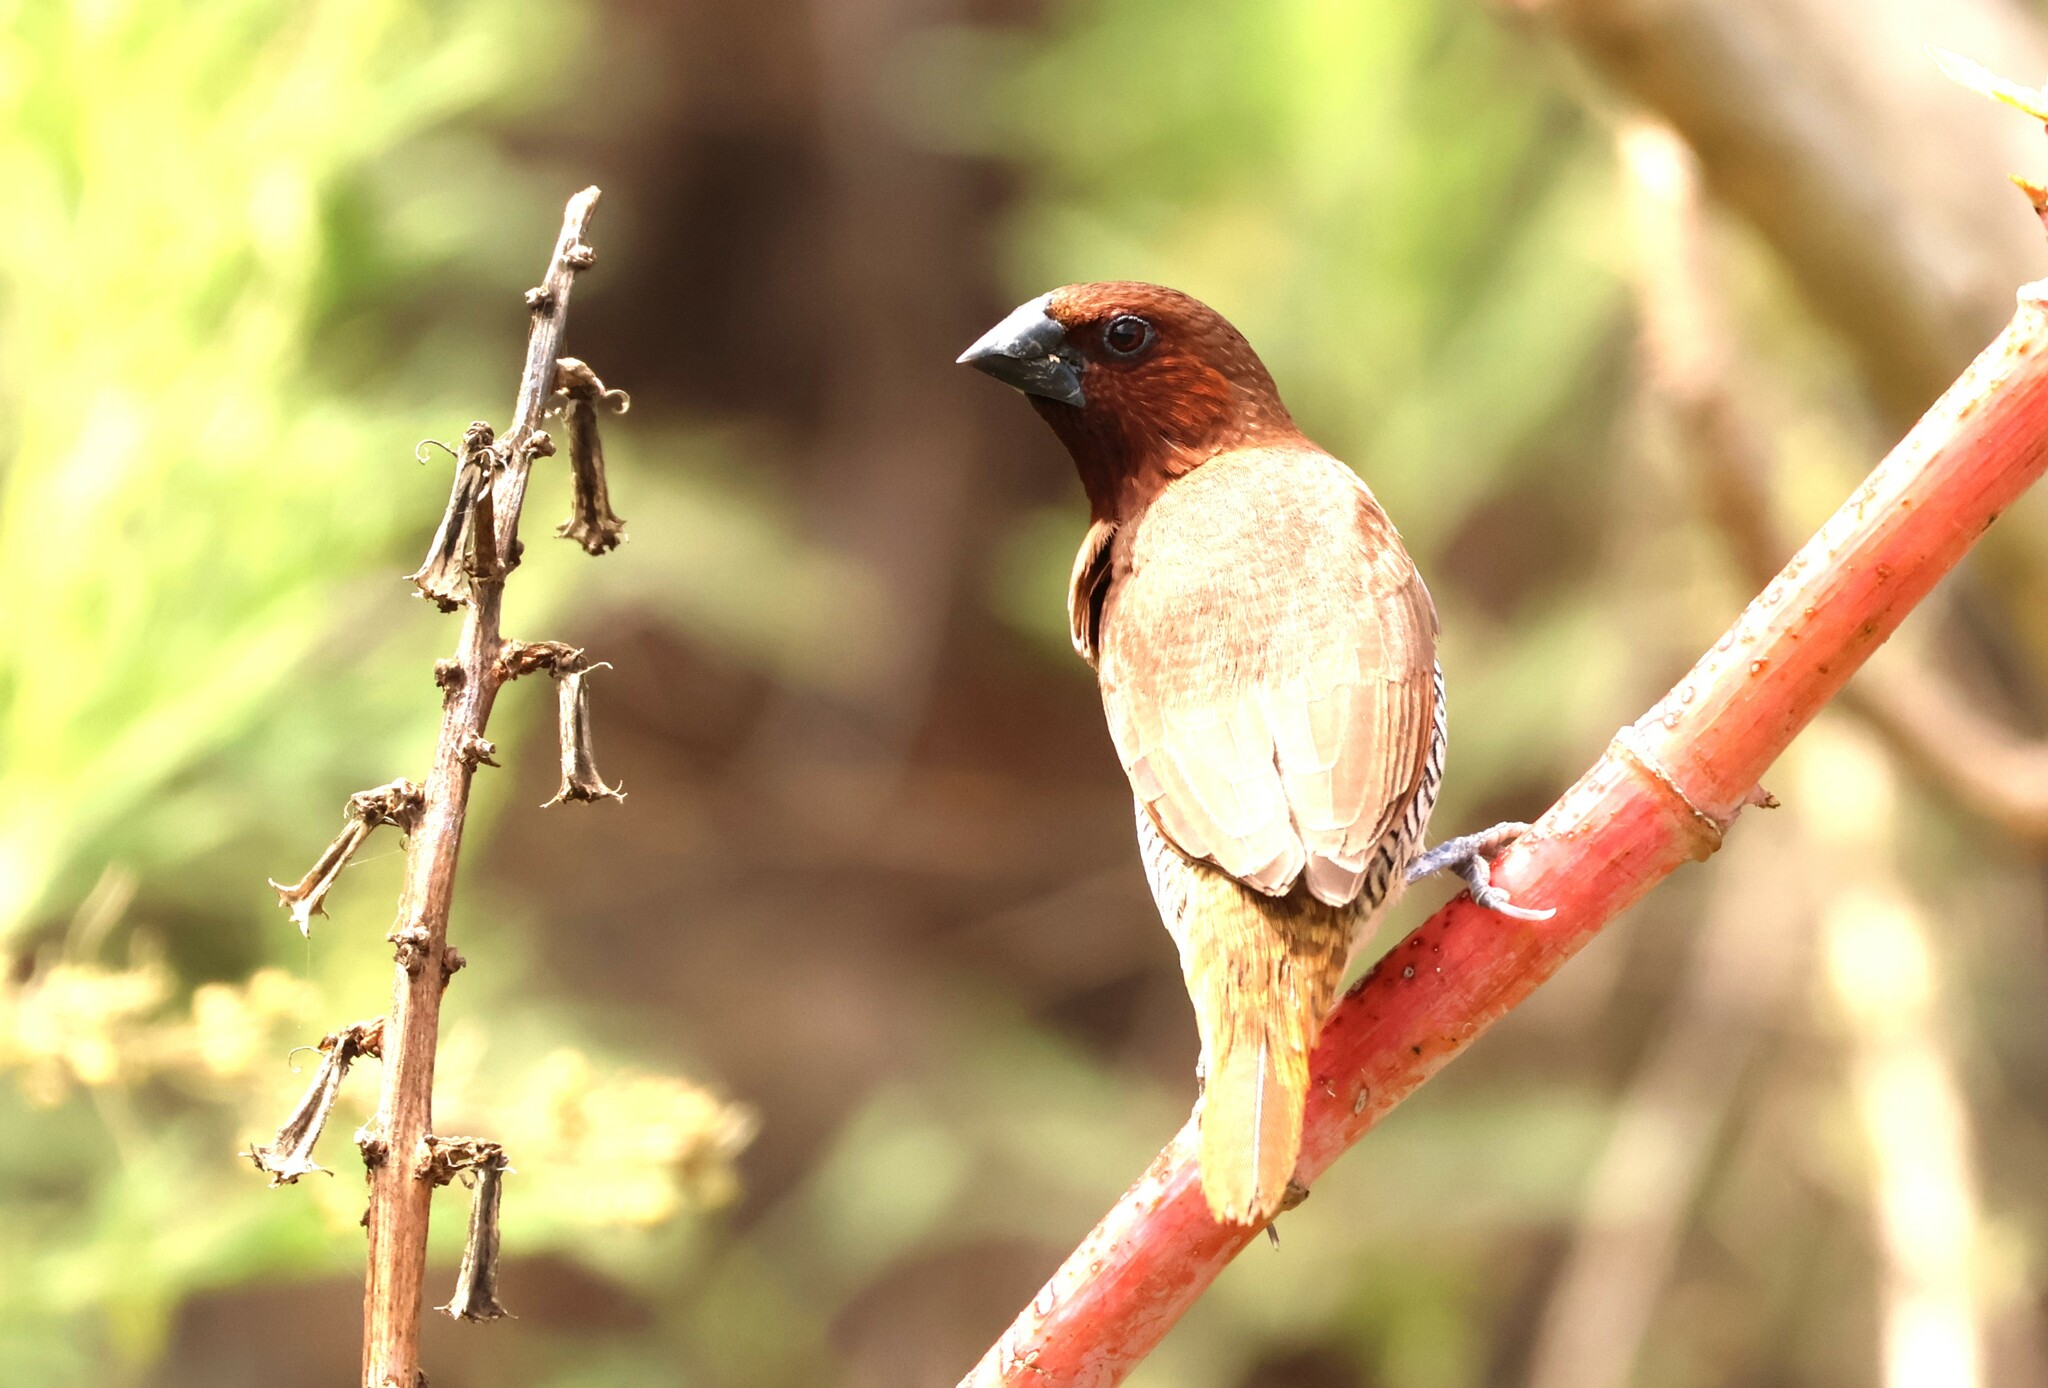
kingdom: Animalia
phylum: Chordata
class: Aves
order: Passeriformes
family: Estrildidae
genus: Lonchura
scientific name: Lonchura punctulata
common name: Scaly-breasted munia
